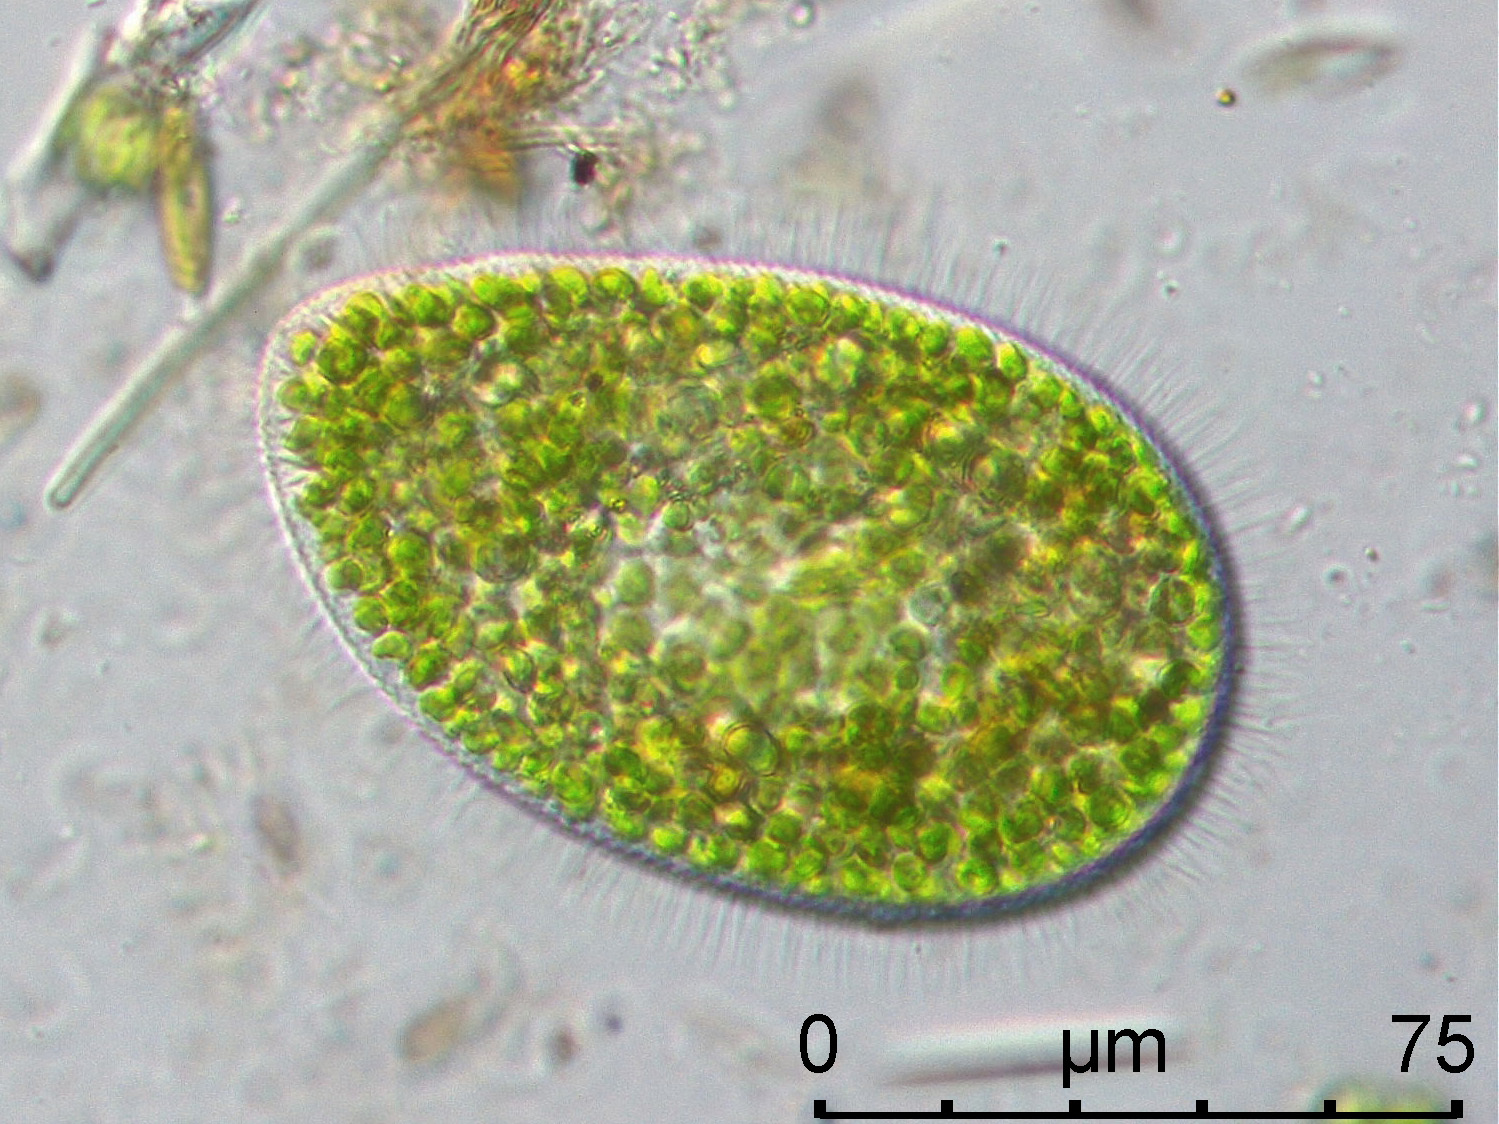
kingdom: Chromista
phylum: Ciliophora
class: Oligohymenophorea
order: Peniculida
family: Parameciidae
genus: Paramecium
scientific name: Paramecium
